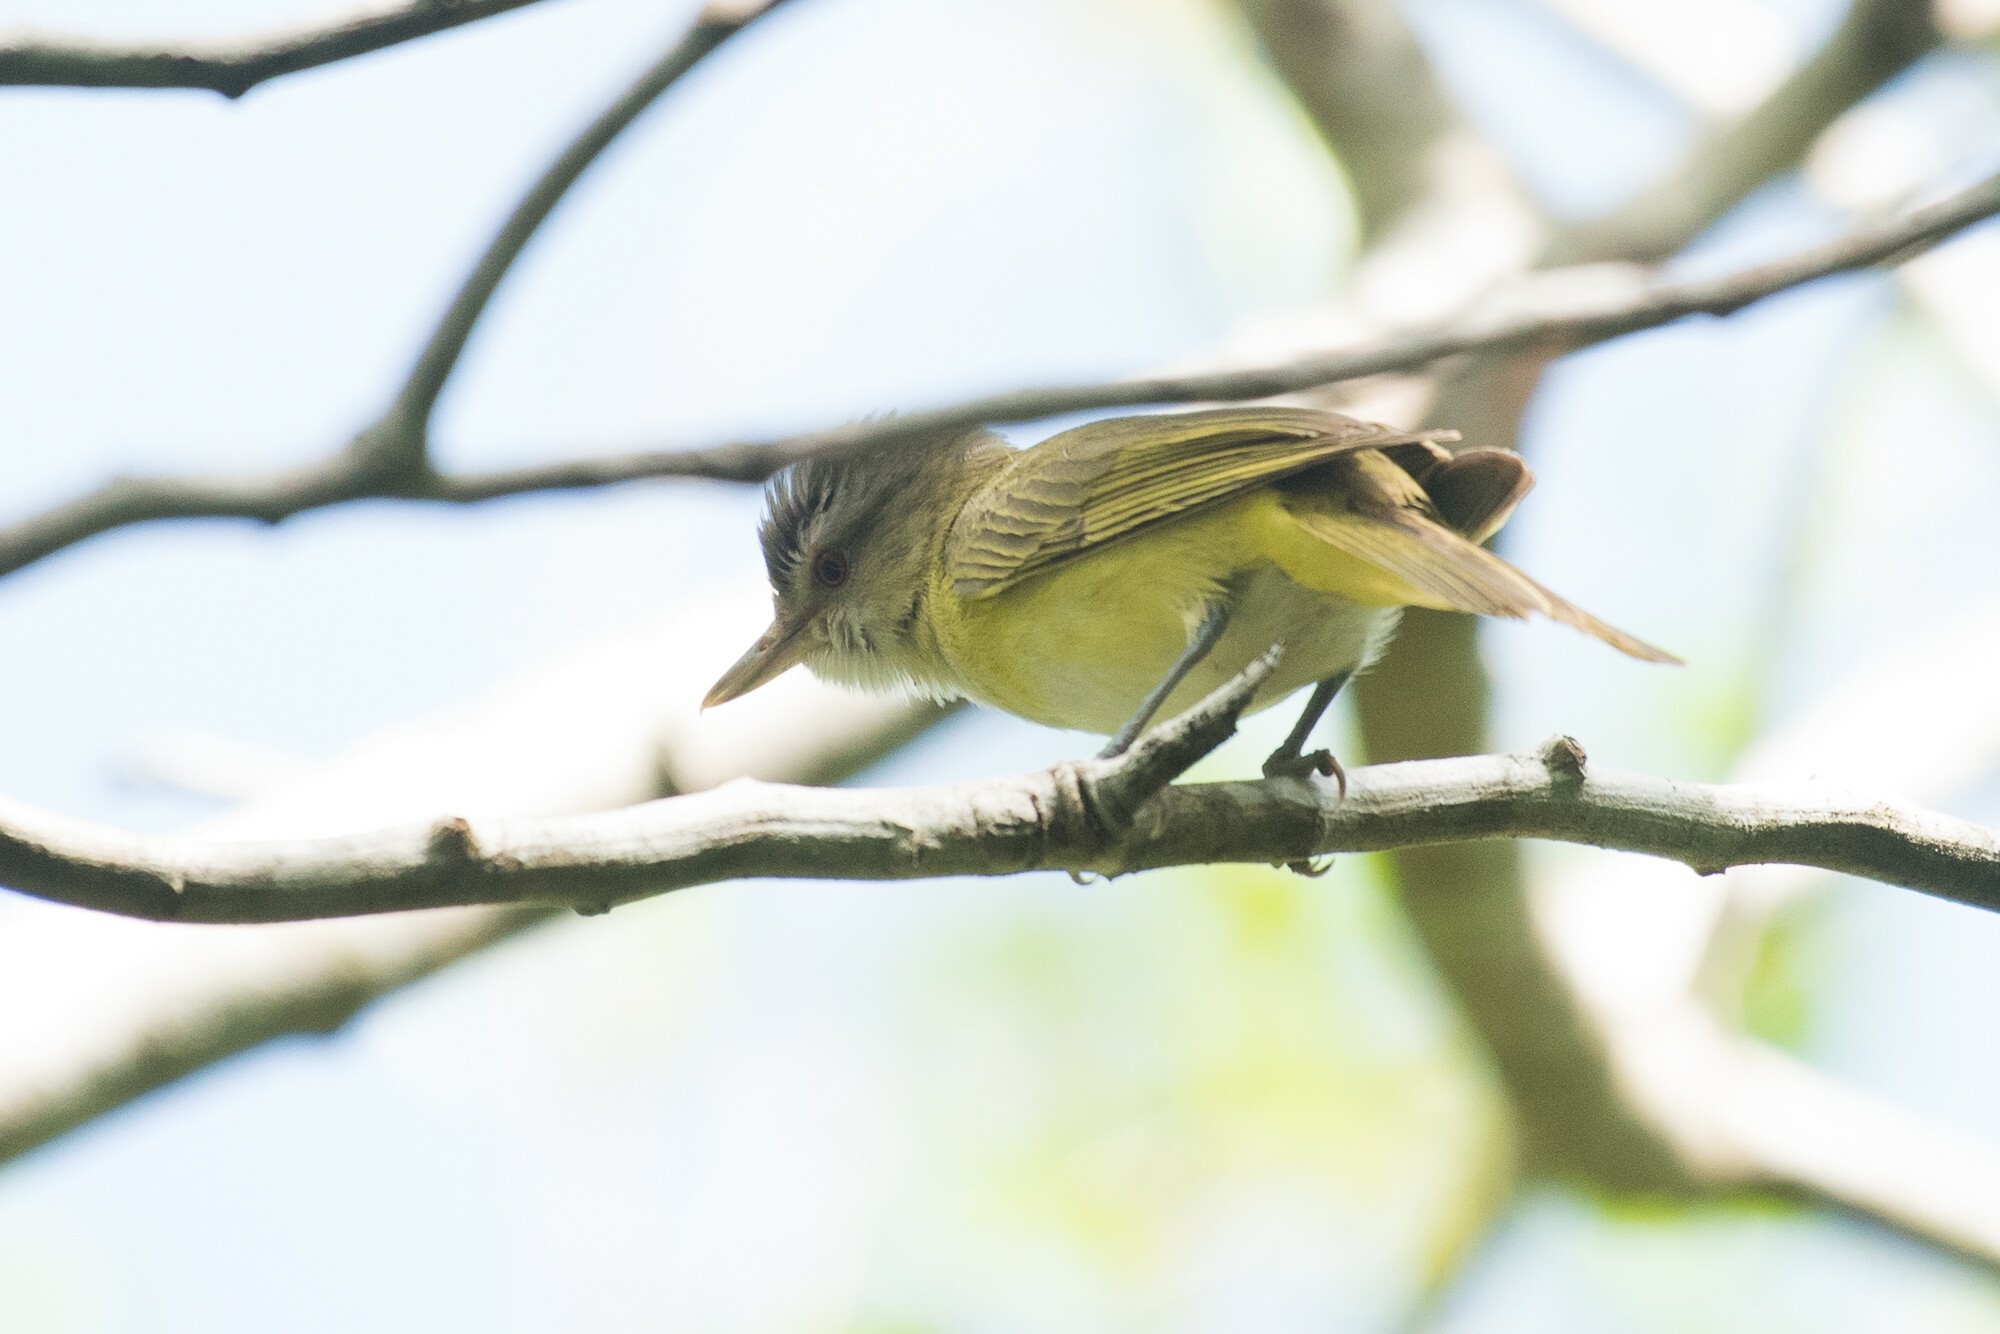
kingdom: Animalia
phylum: Chordata
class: Aves
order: Passeriformes
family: Vireonidae
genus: Vireo
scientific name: Vireo flavoviridis
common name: Yellow-green vireo
